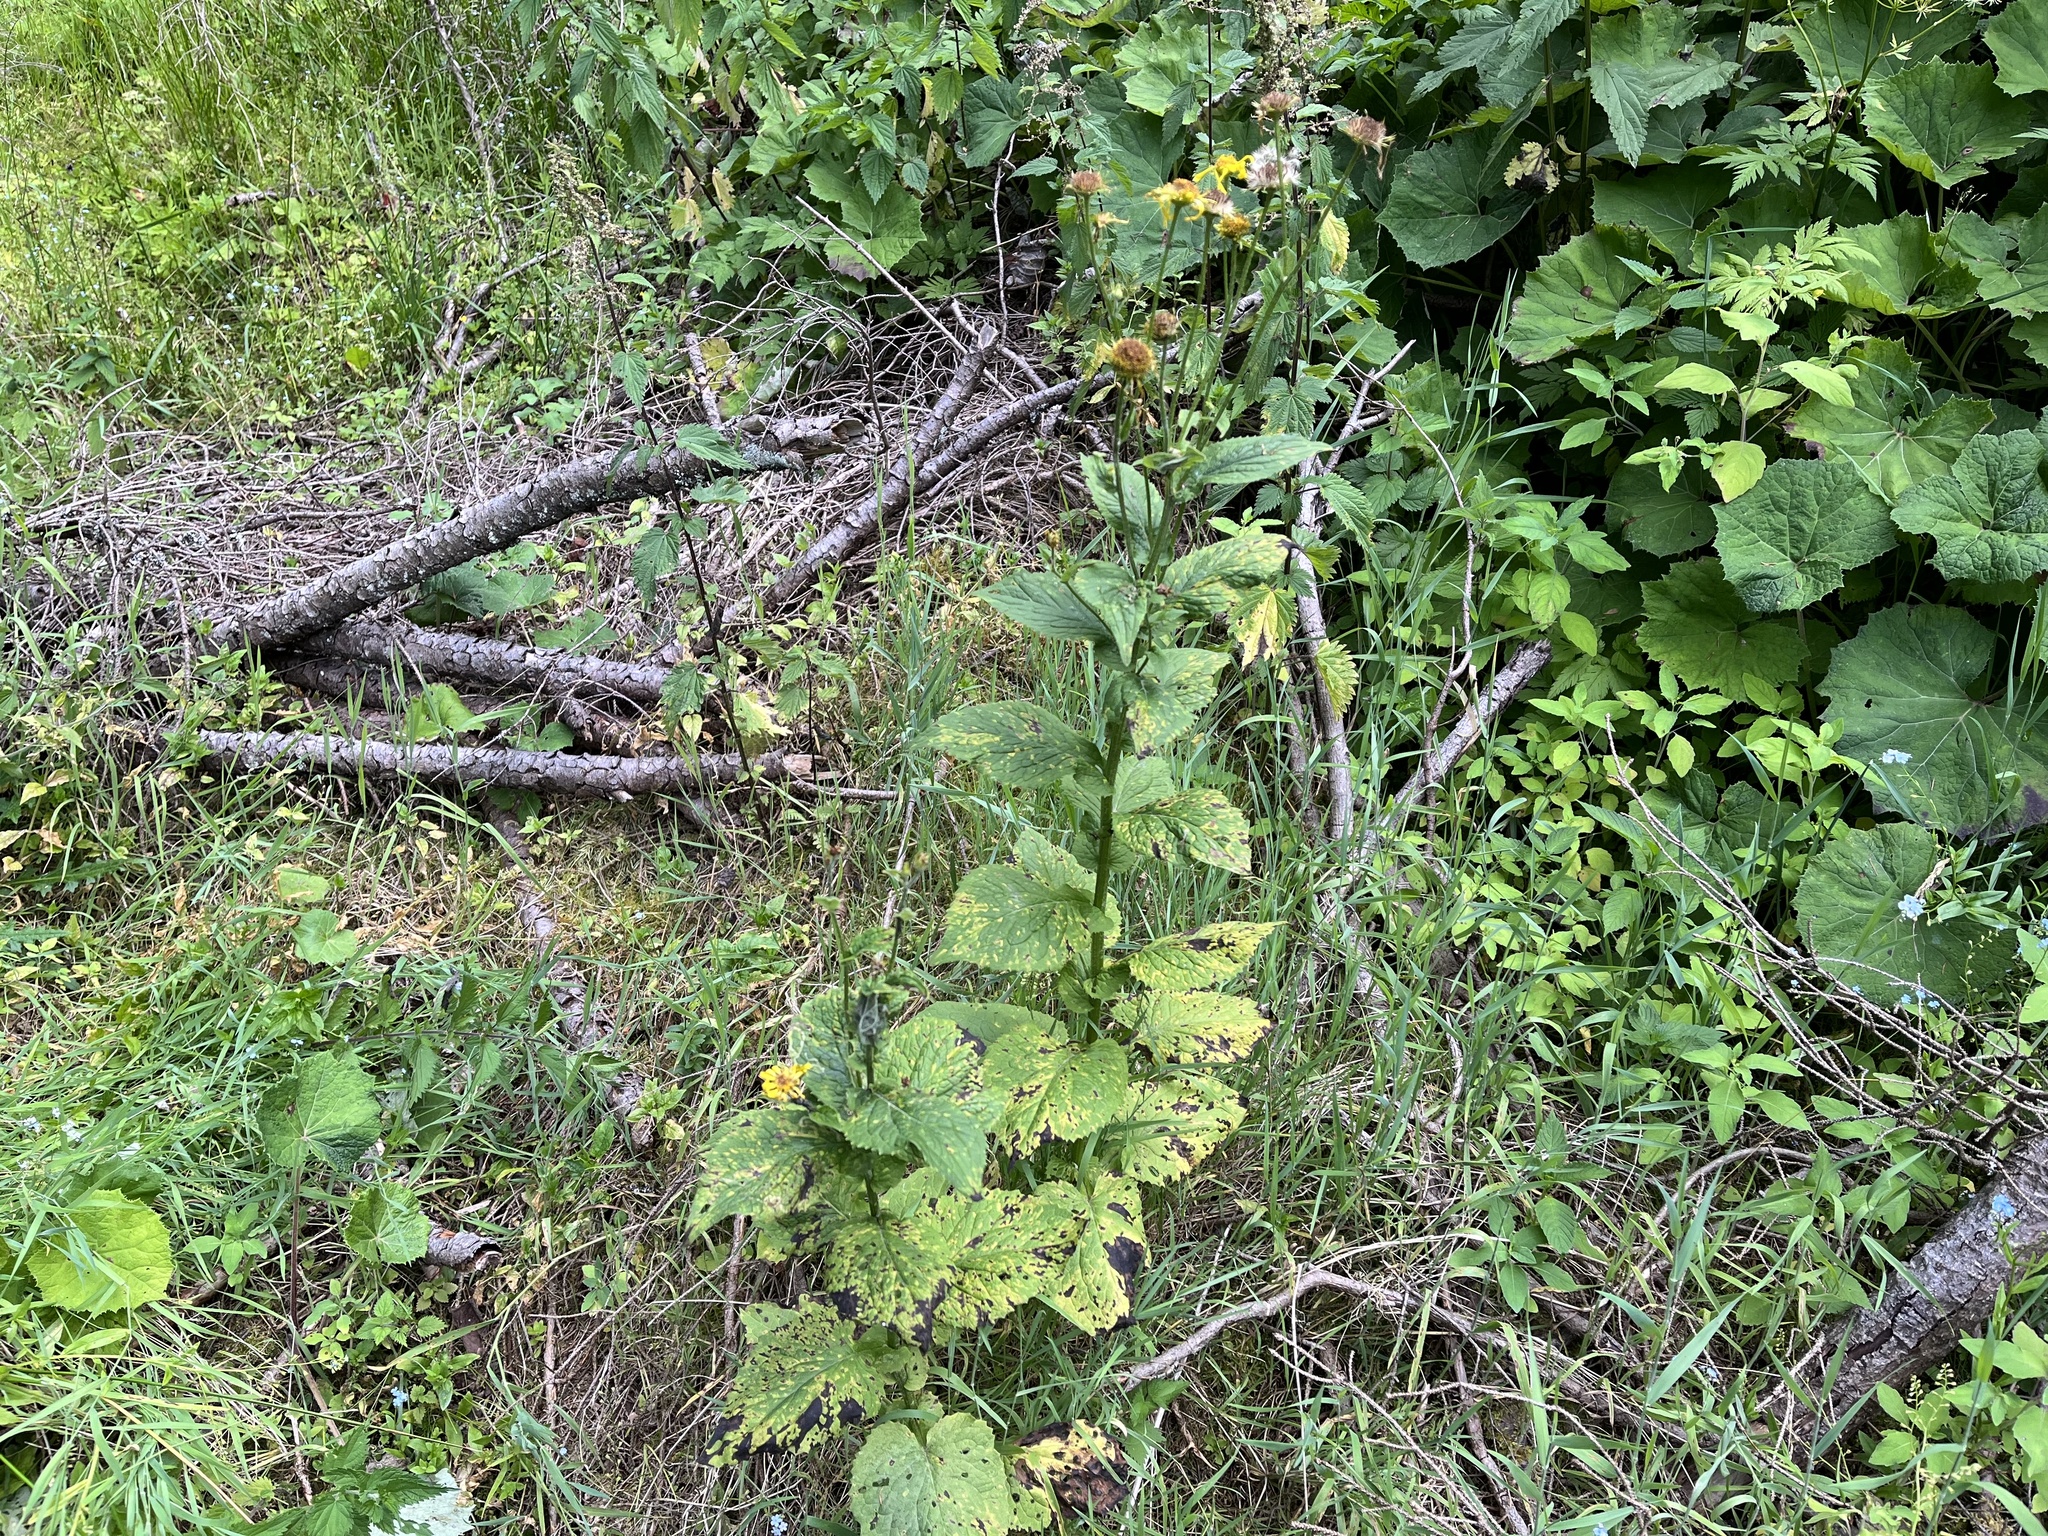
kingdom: Plantae
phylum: Tracheophyta
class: Magnoliopsida
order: Asterales
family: Asteraceae
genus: Doronicum
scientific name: Doronicum austriacum
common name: Austrian leopard's-bane
